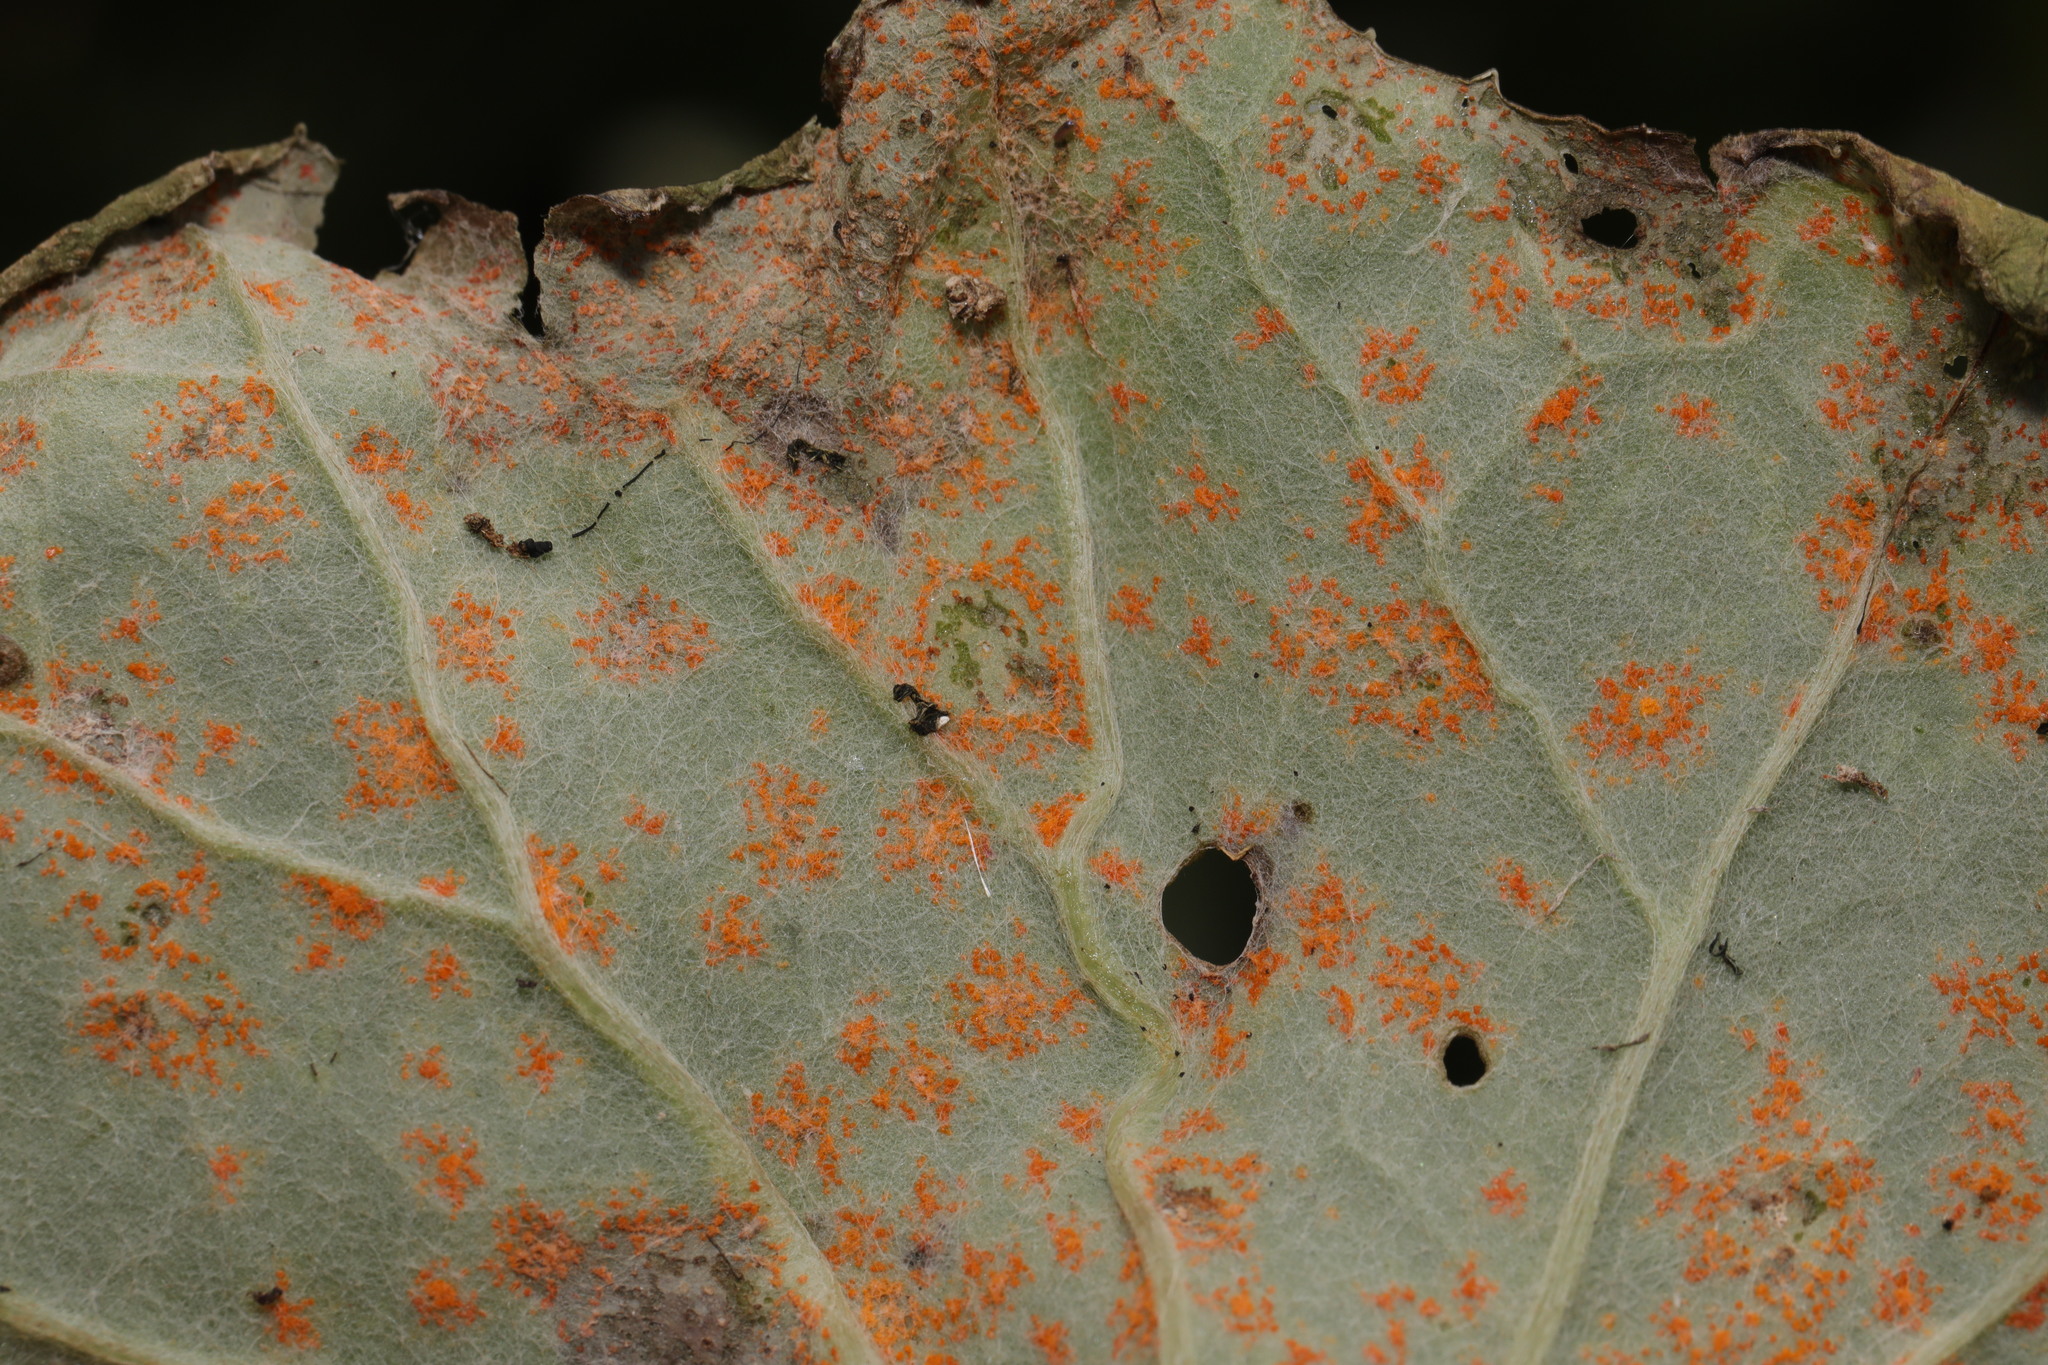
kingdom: Fungi
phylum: Basidiomycota
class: Pucciniomycetes
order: Pucciniales
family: Coleosporiaceae
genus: Coleosporium
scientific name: Coleosporium tussilaginis
